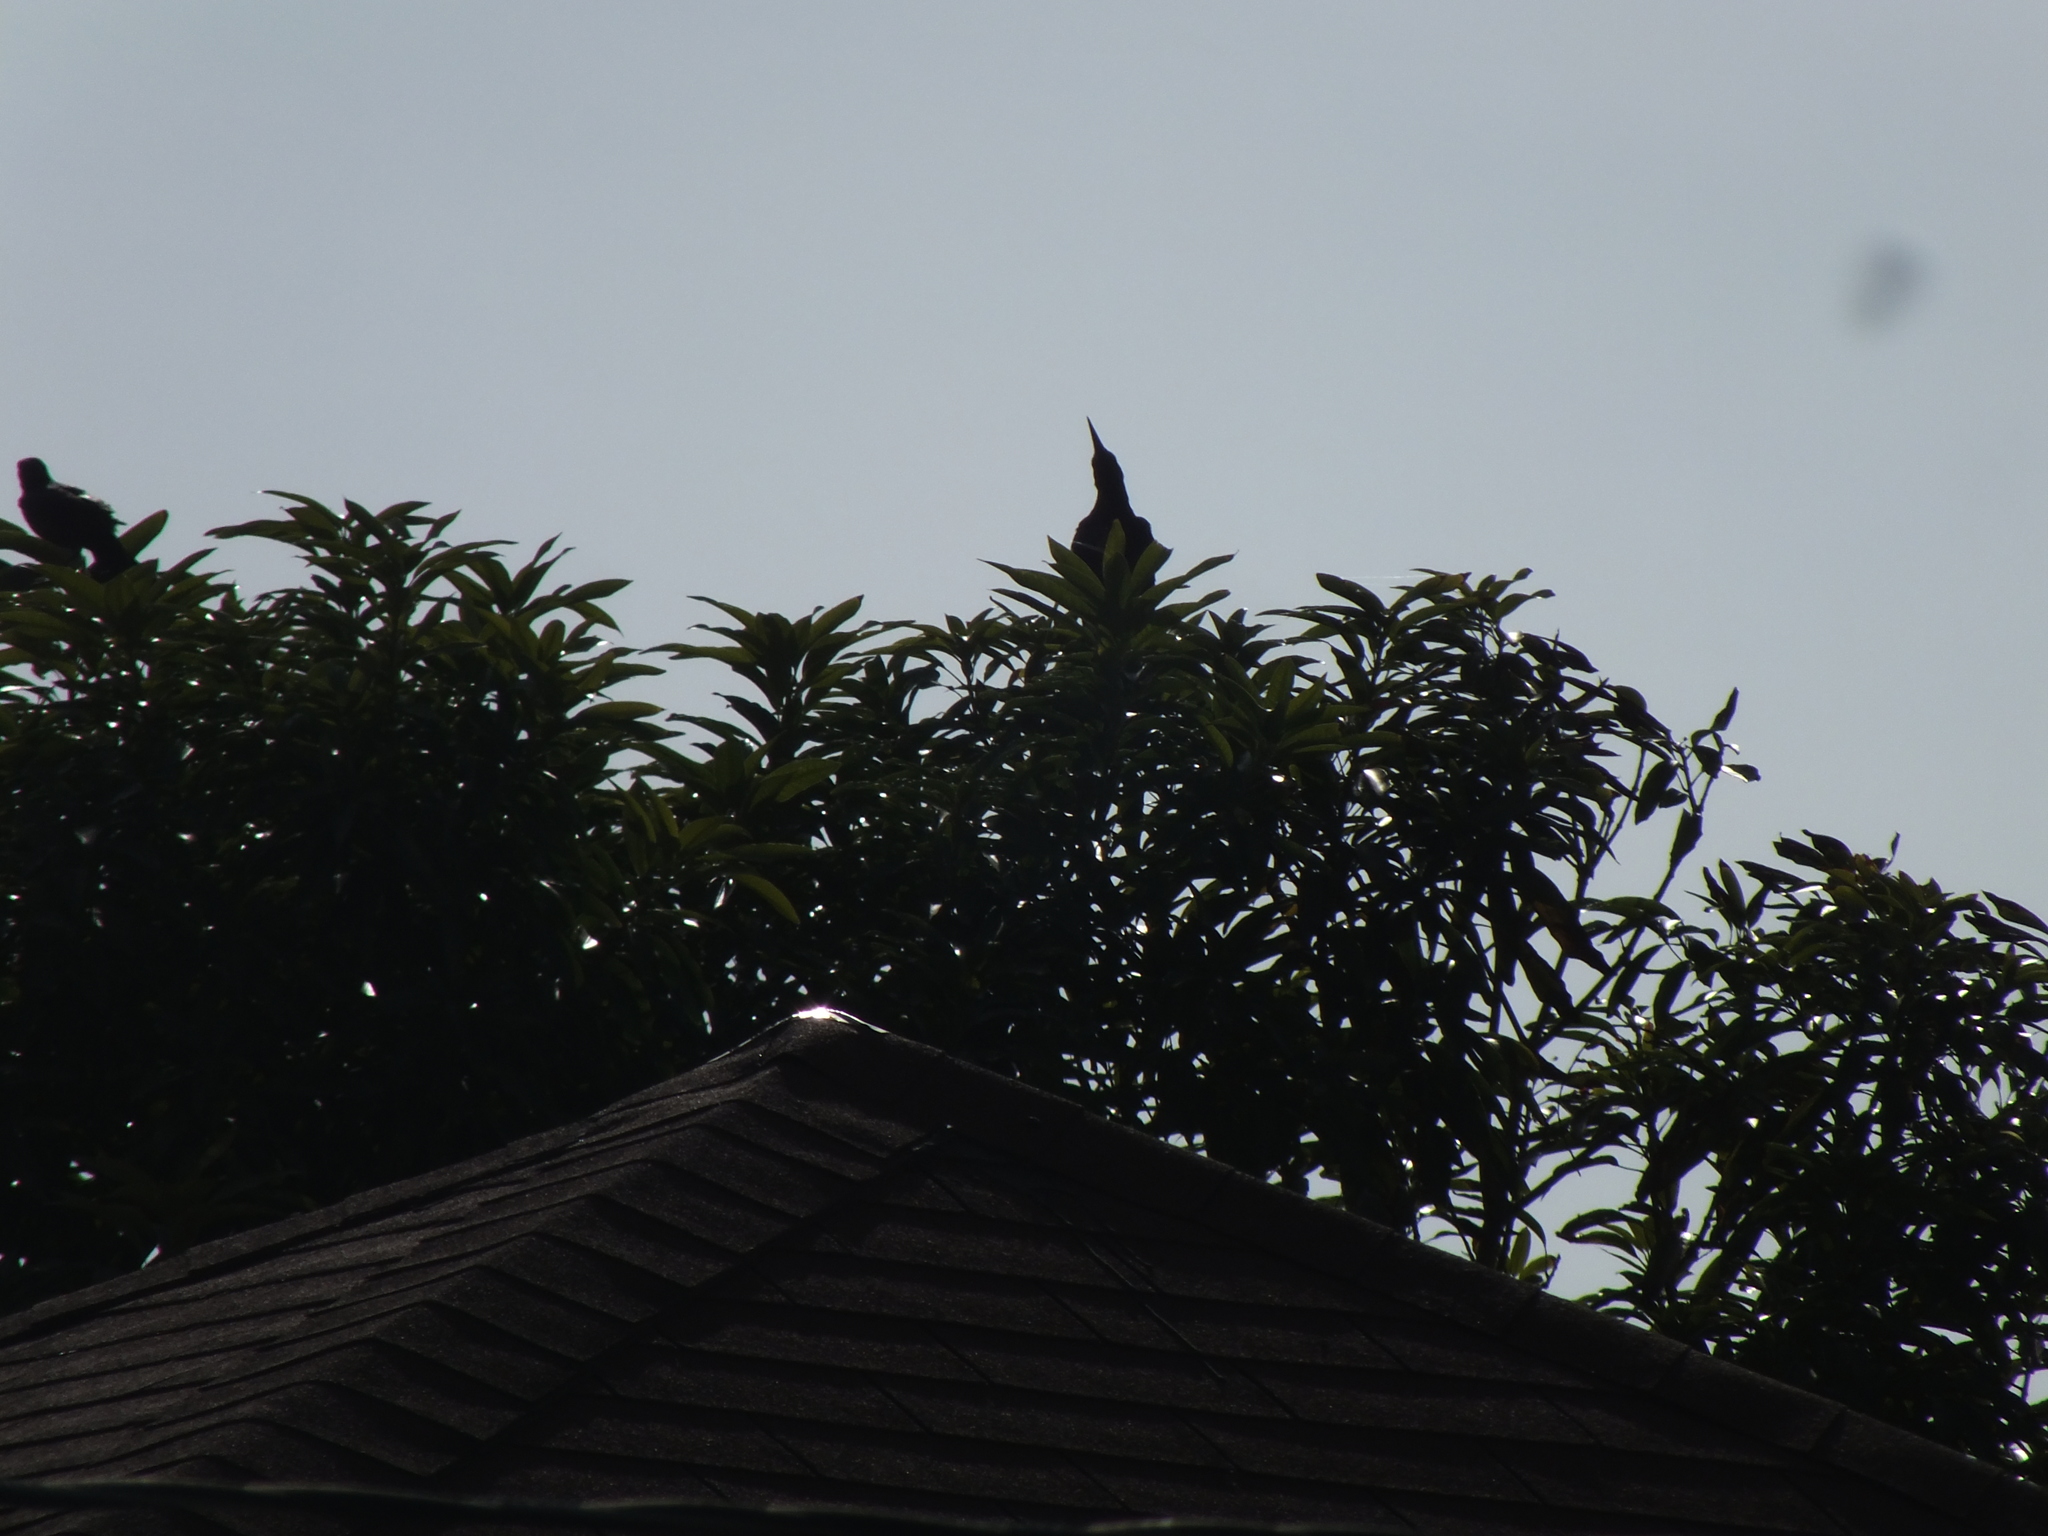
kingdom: Animalia
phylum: Chordata
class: Aves
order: Passeriformes
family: Icteridae
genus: Quiscalus
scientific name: Quiscalus mexicanus
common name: Great-tailed grackle
